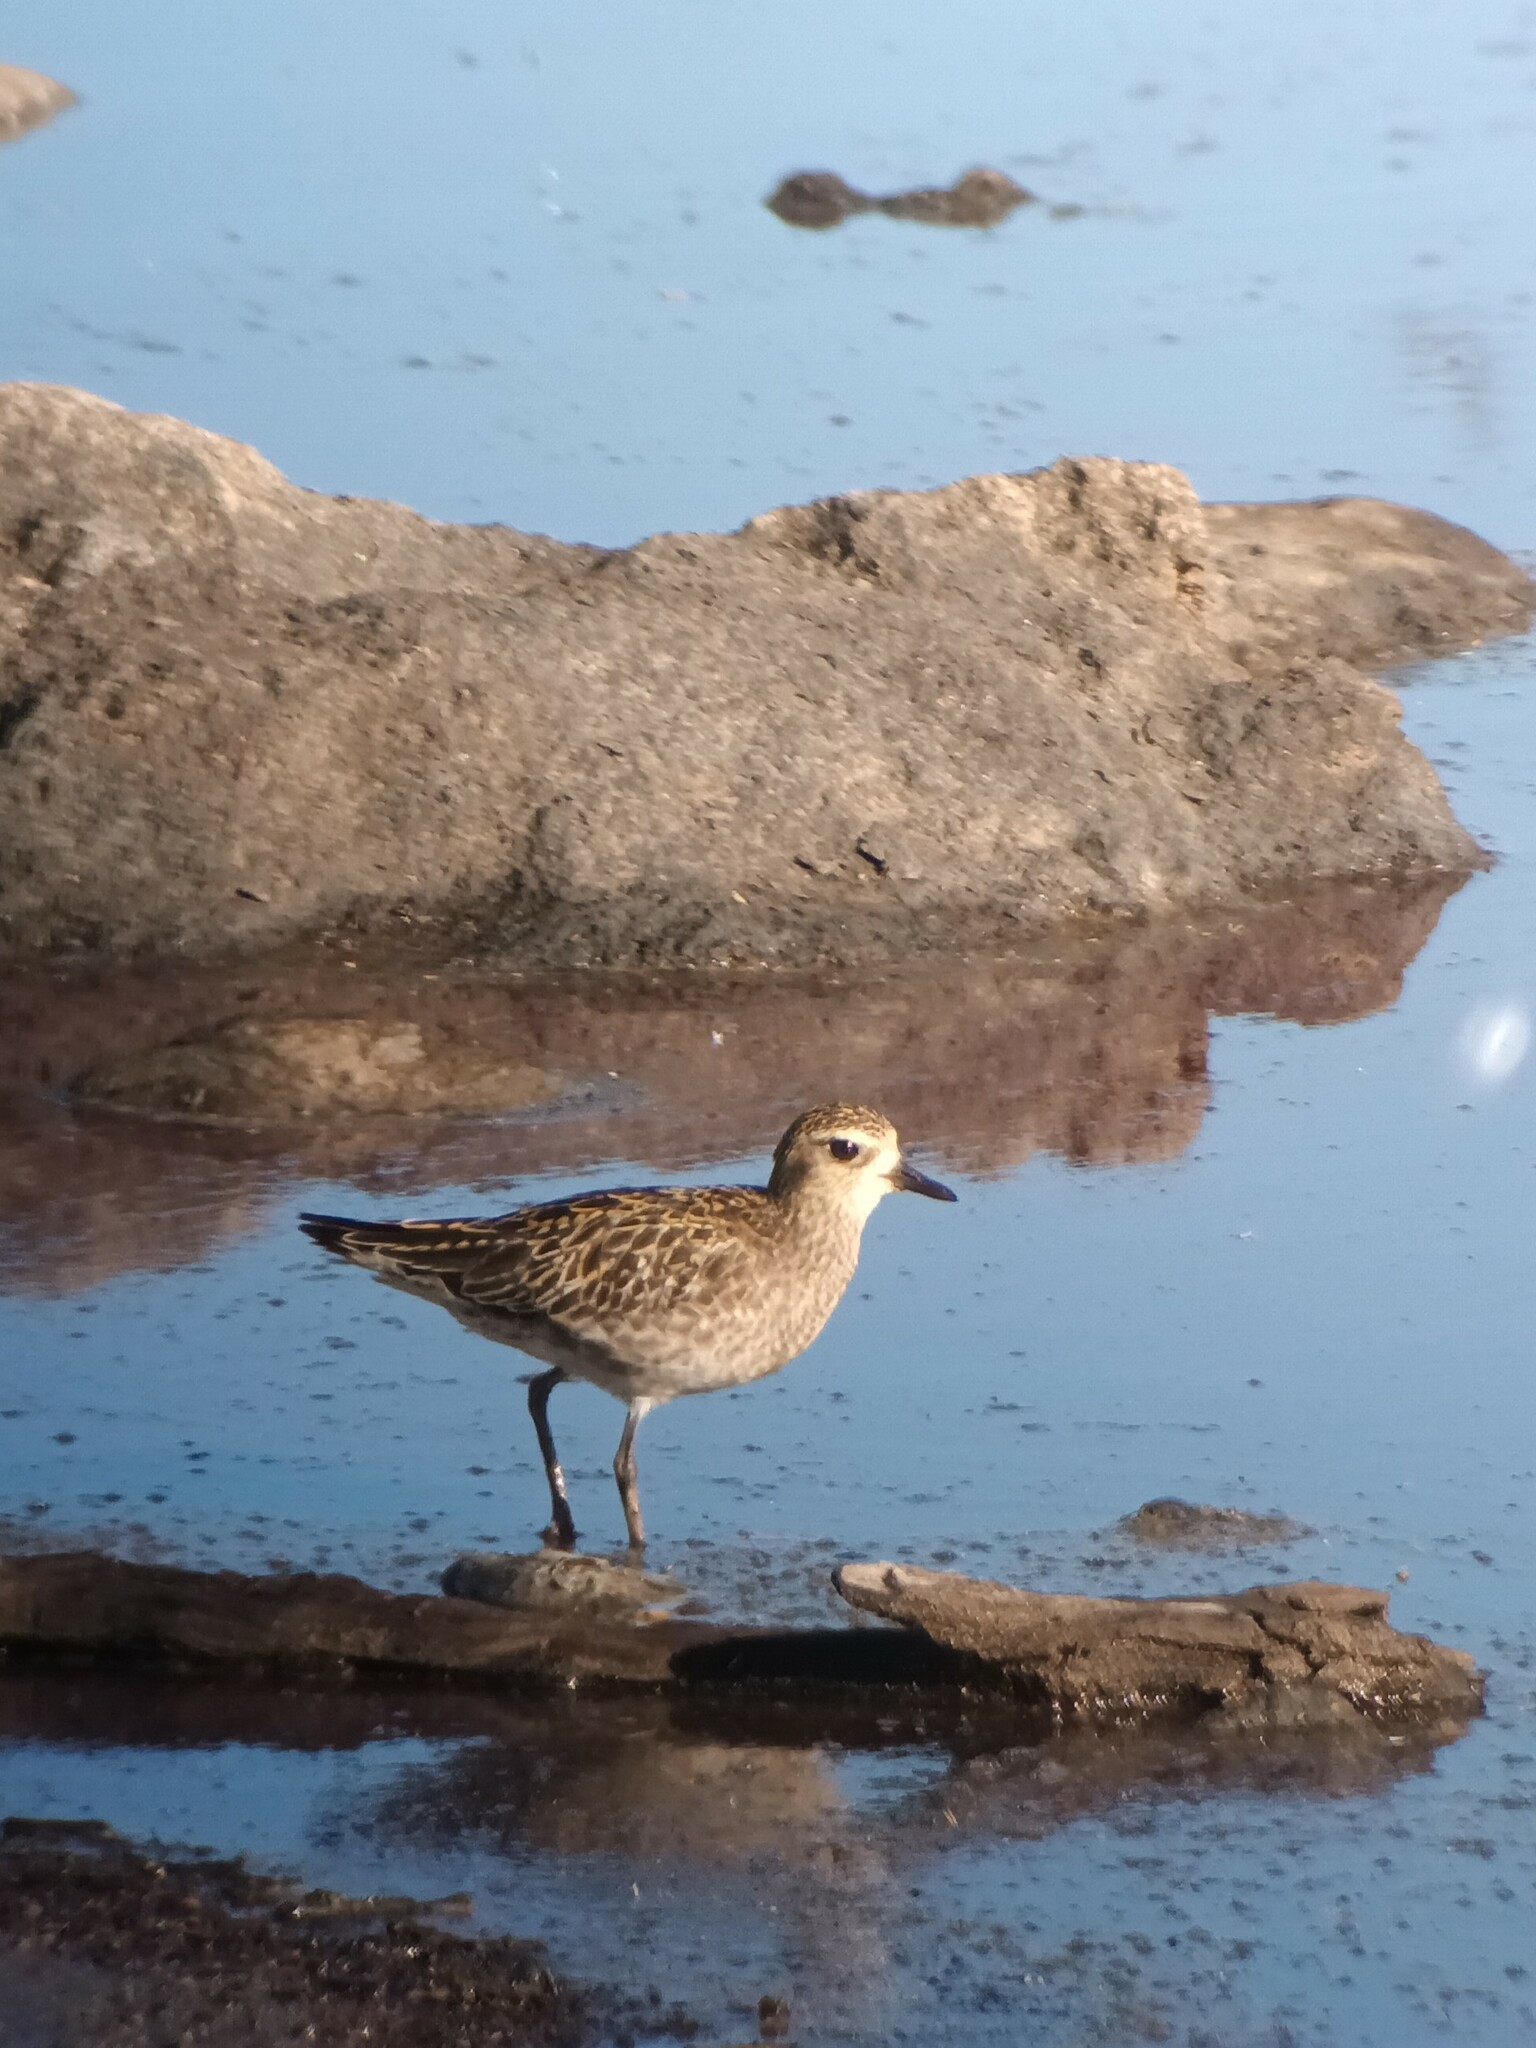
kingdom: Animalia
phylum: Chordata
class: Aves
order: Charadriiformes
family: Charadriidae
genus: Pluvialis
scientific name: Pluvialis fulva
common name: Pacific golden plover
